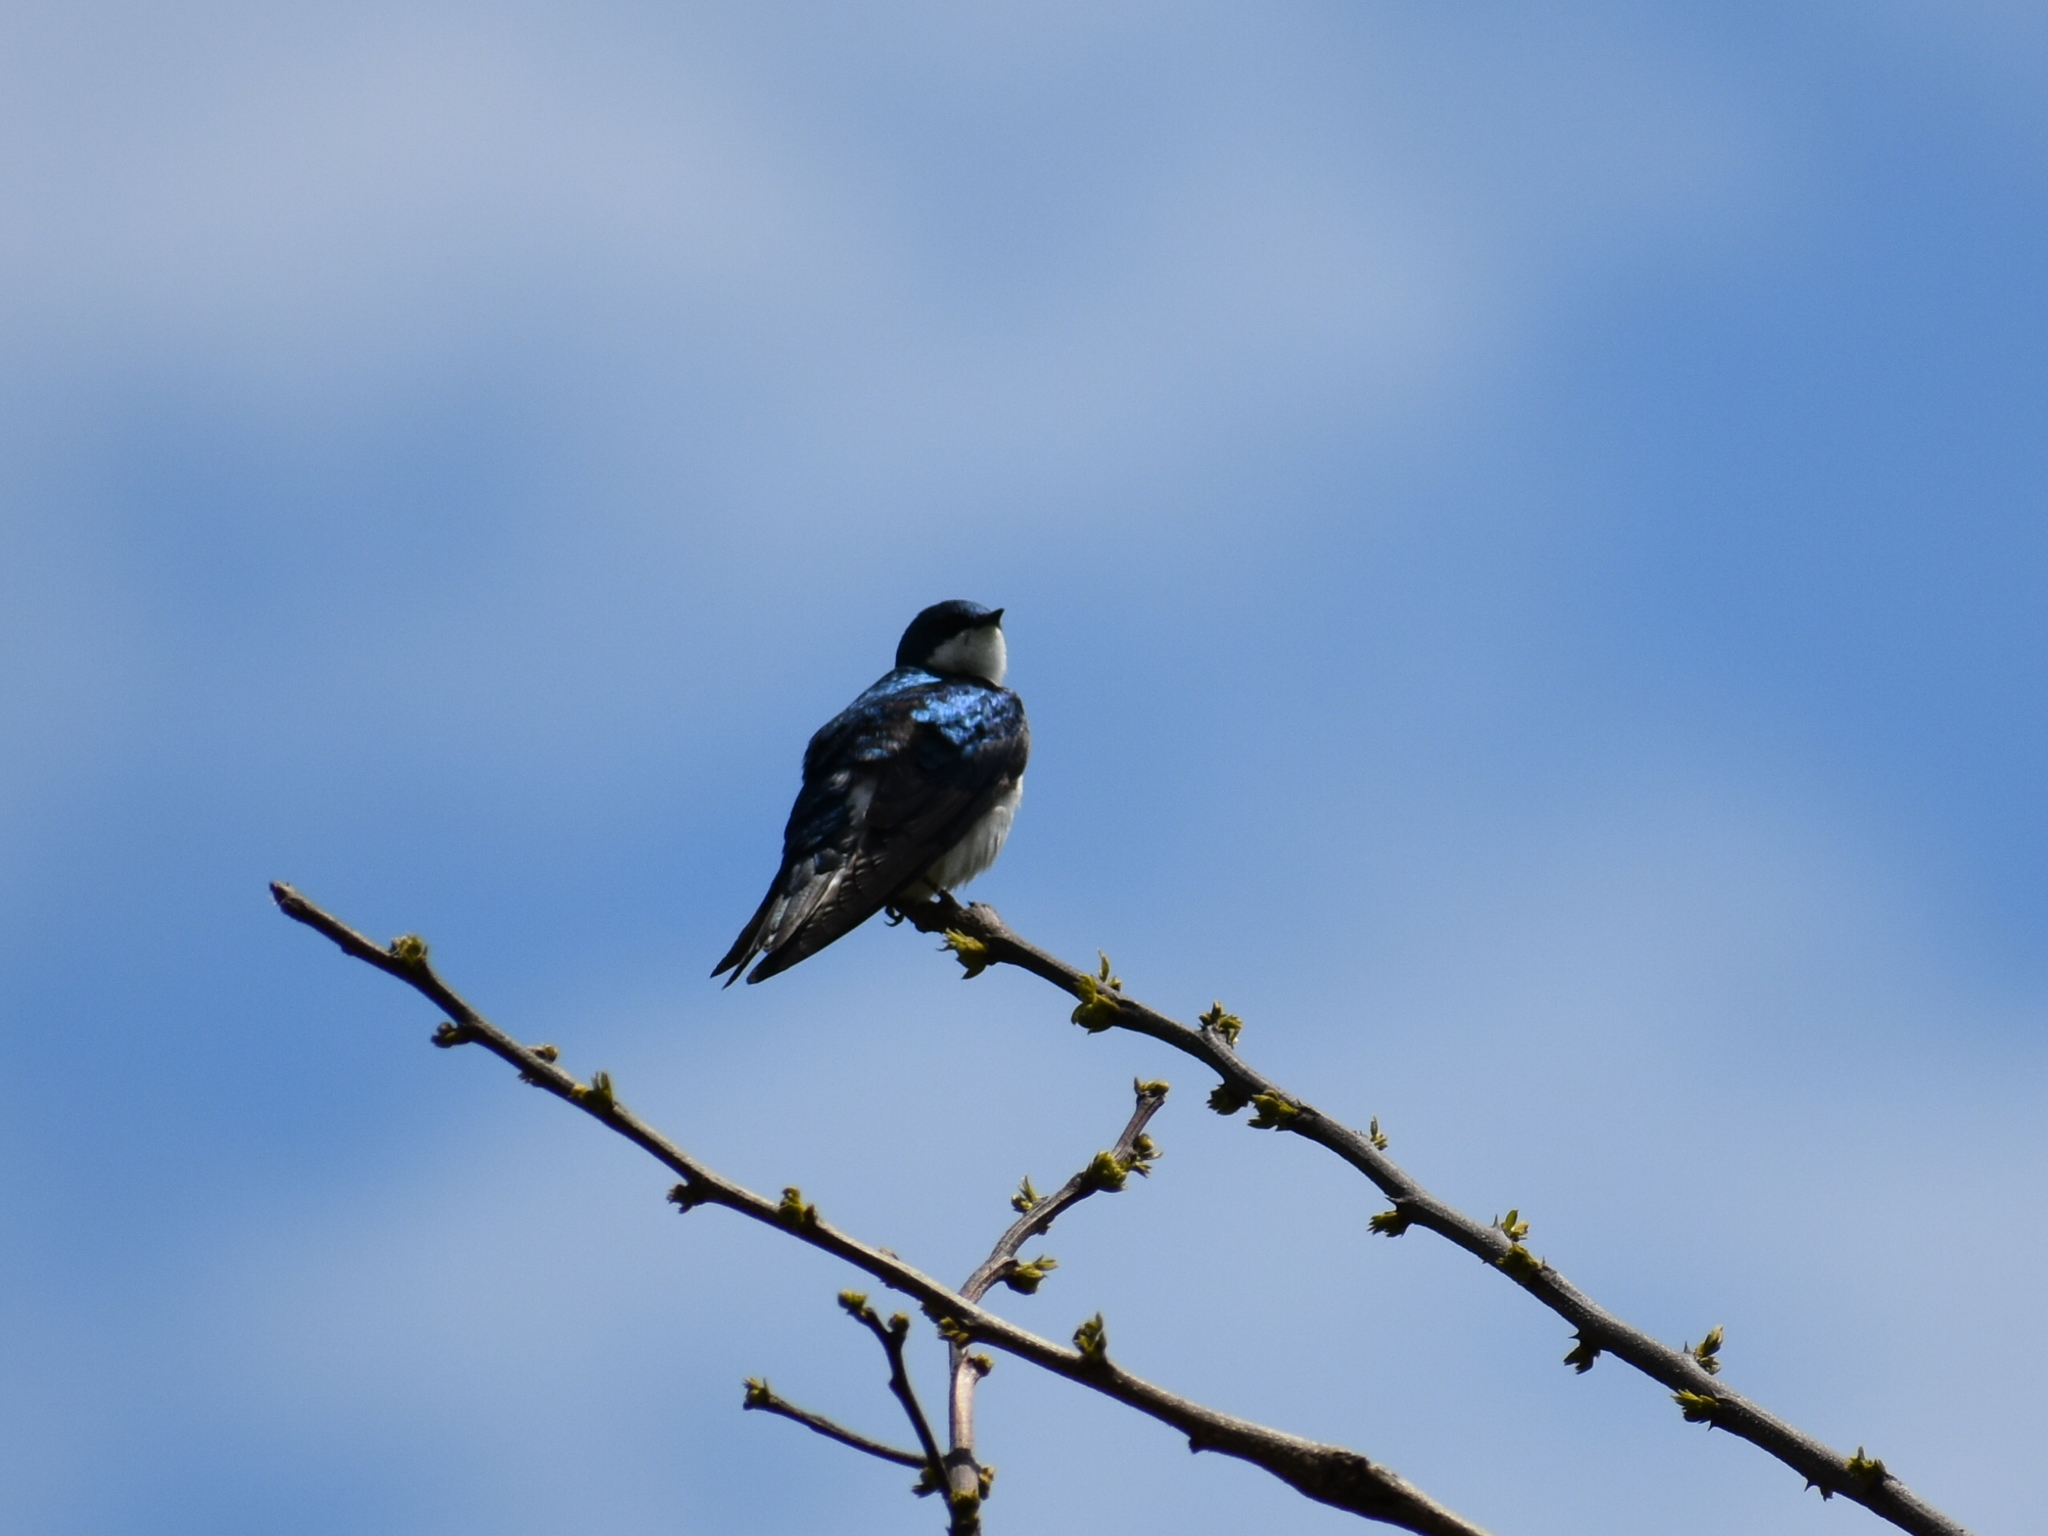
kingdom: Animalia
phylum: Chordata
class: Aves
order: Passeriformes
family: Hirundinidae
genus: Tachycineta
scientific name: Tachycineta bicolor
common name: Tree swallow
